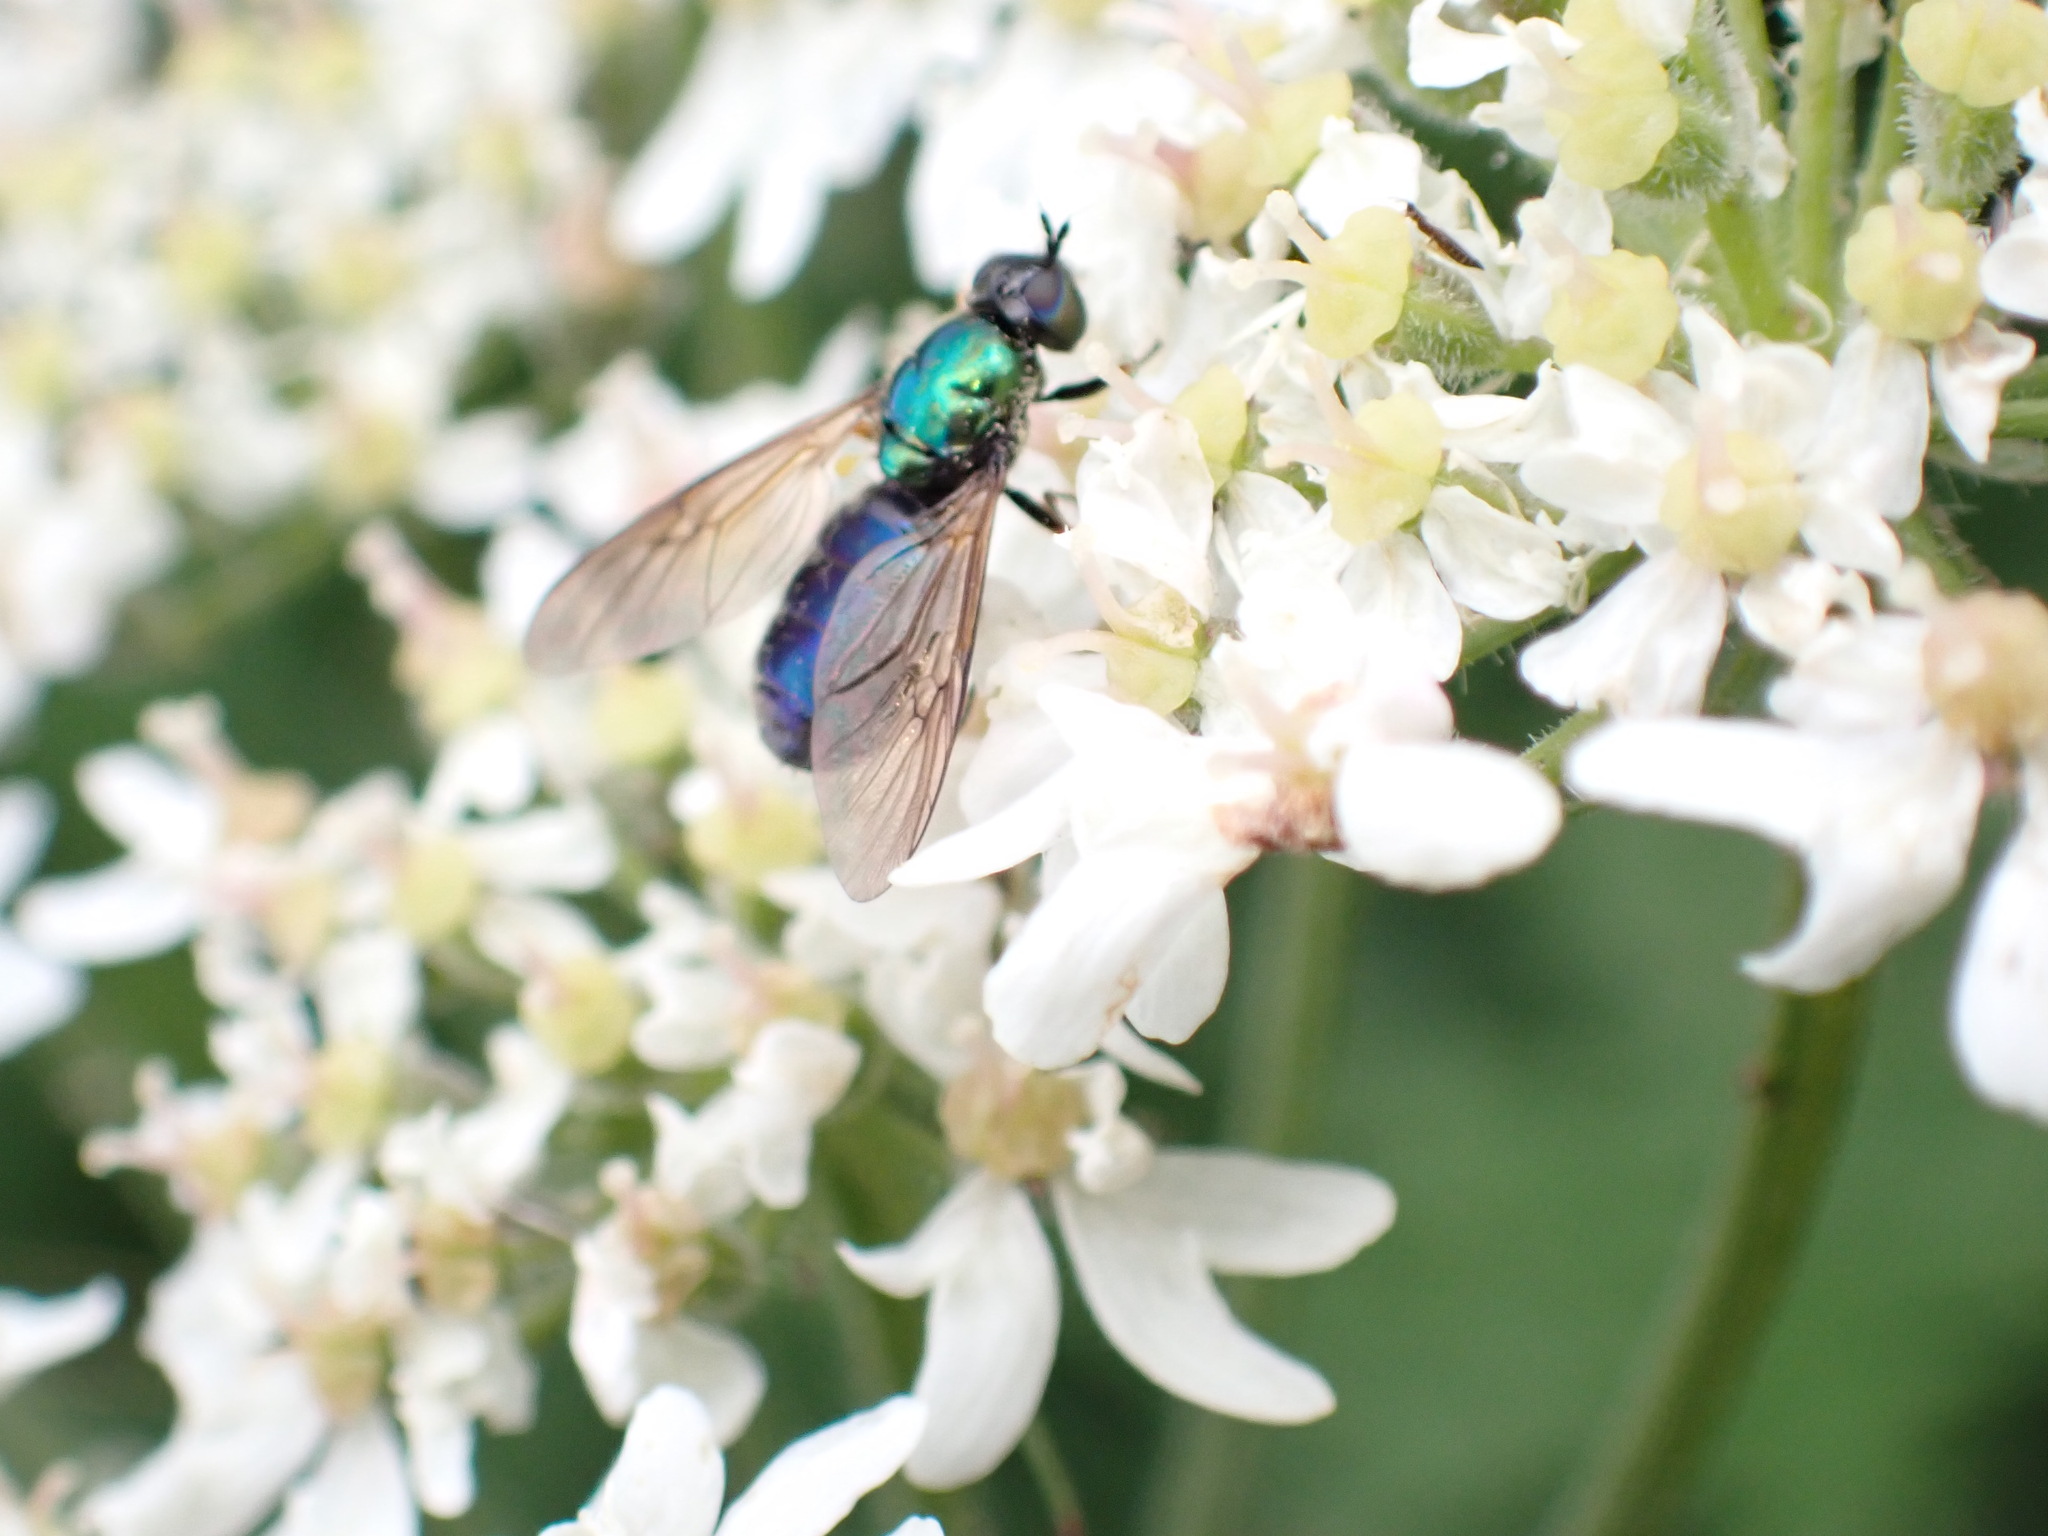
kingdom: Animalia
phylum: Arthropoda
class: Insecta
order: Diptera
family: Stratiomyidae
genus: Chloromyia
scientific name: Chloromyia formosa
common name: Soldier fly
